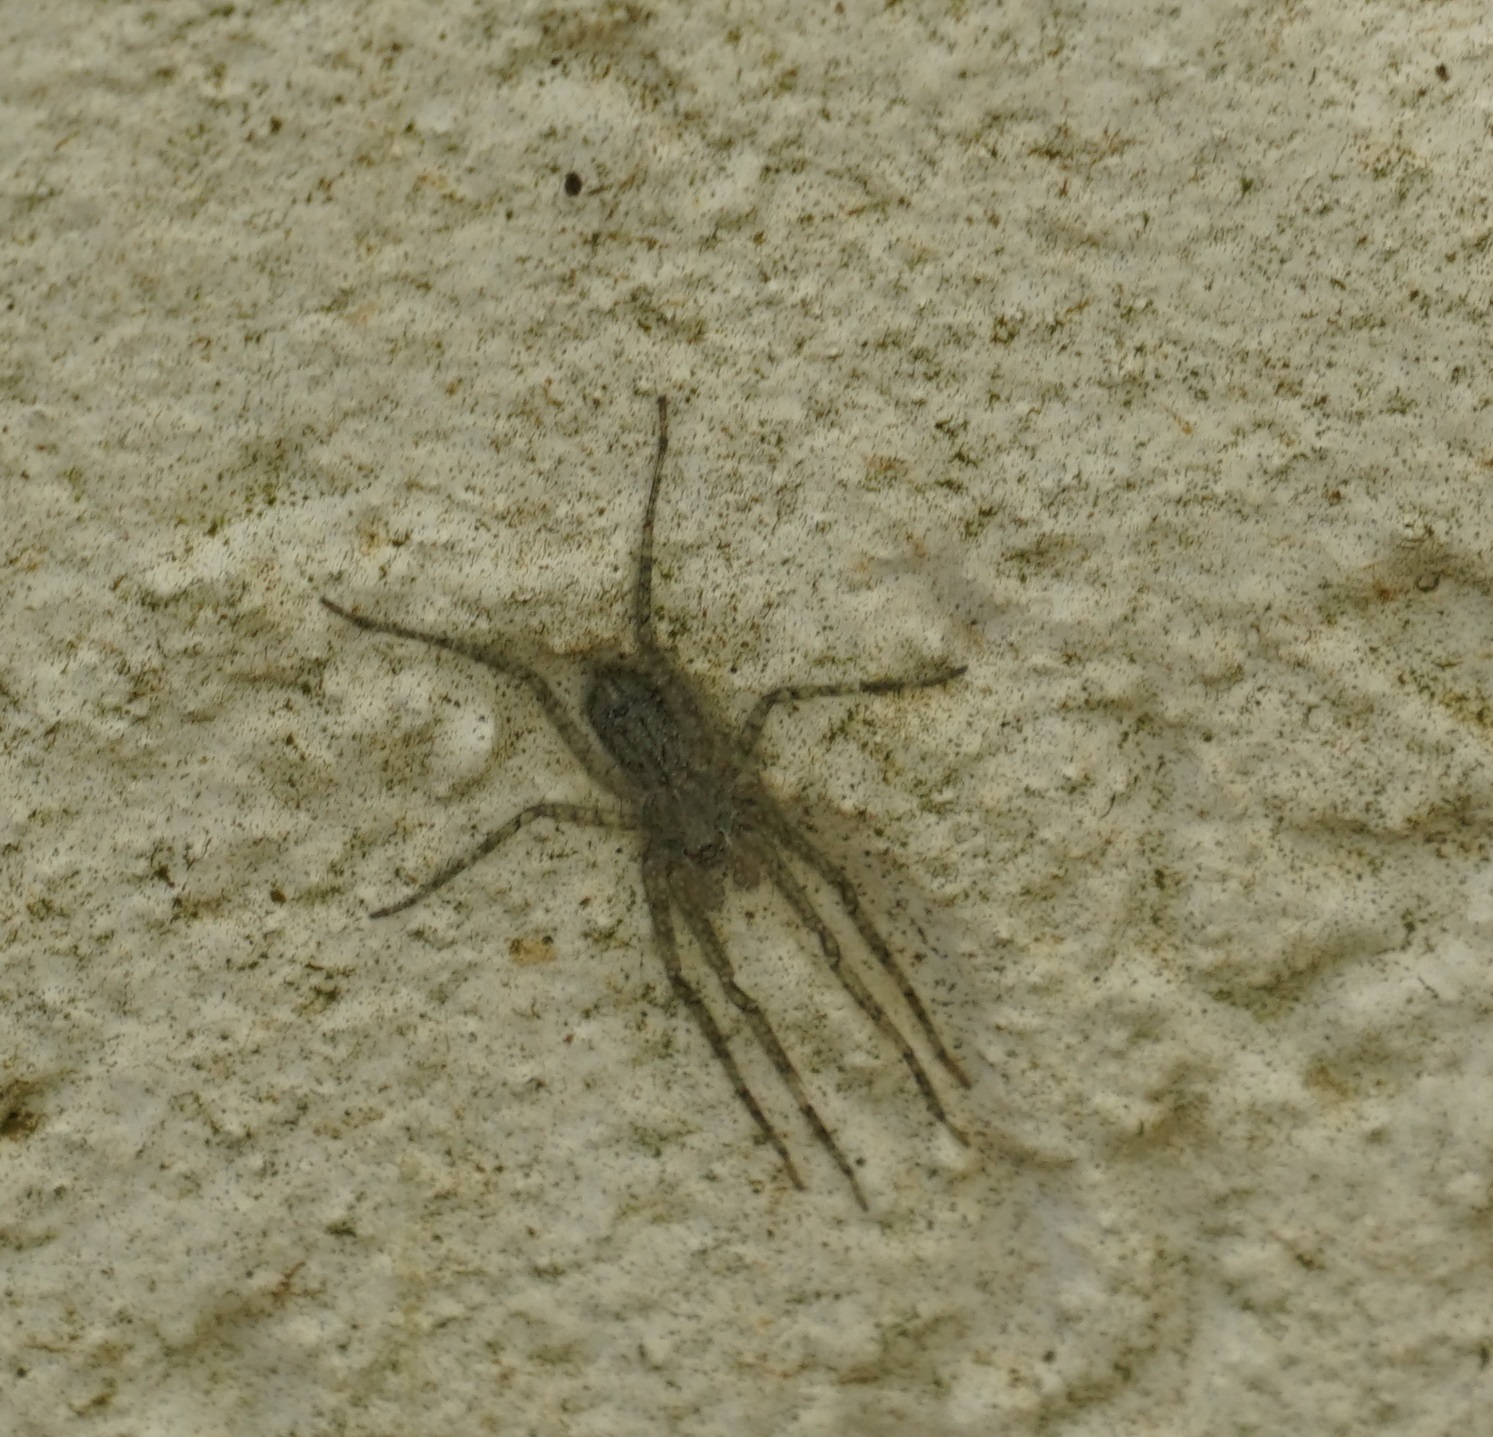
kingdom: Animalia
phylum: Arthropoda
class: Arachnida
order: Araneae
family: Sparassidae
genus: Pandercetes
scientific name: Pandercetes gracilis
